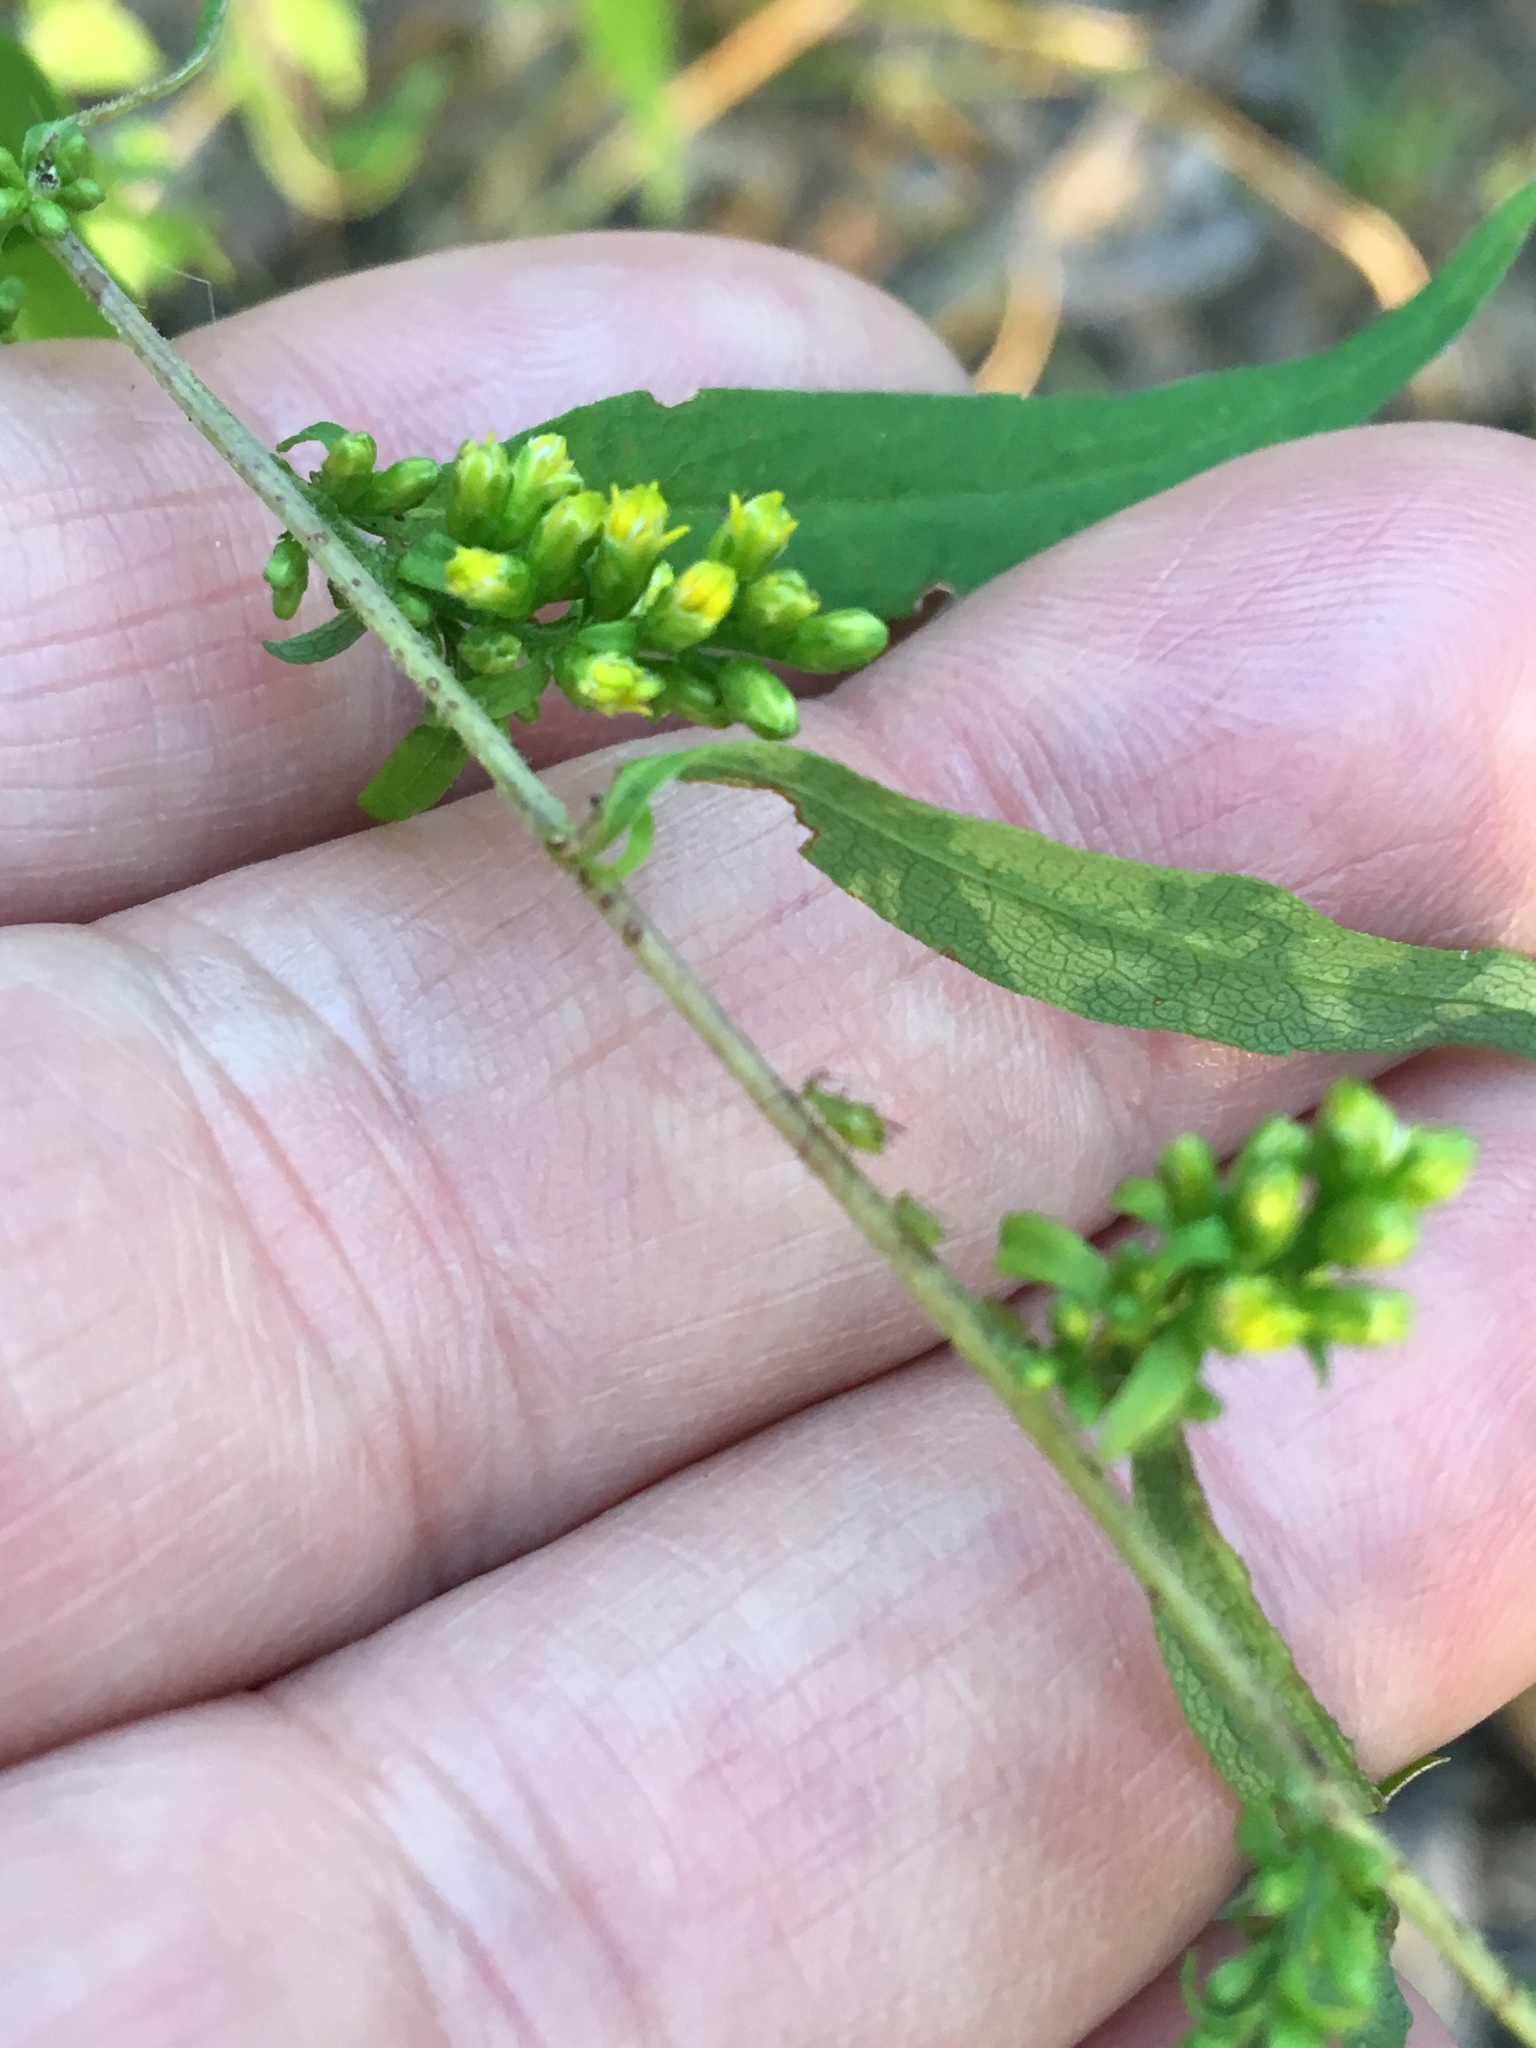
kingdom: Plantae
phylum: Tracheophyta
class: Magnoliopsida
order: Asterales
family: Asteraceae
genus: Solidago
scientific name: Solidago caesia
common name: Woodland goldenrod
